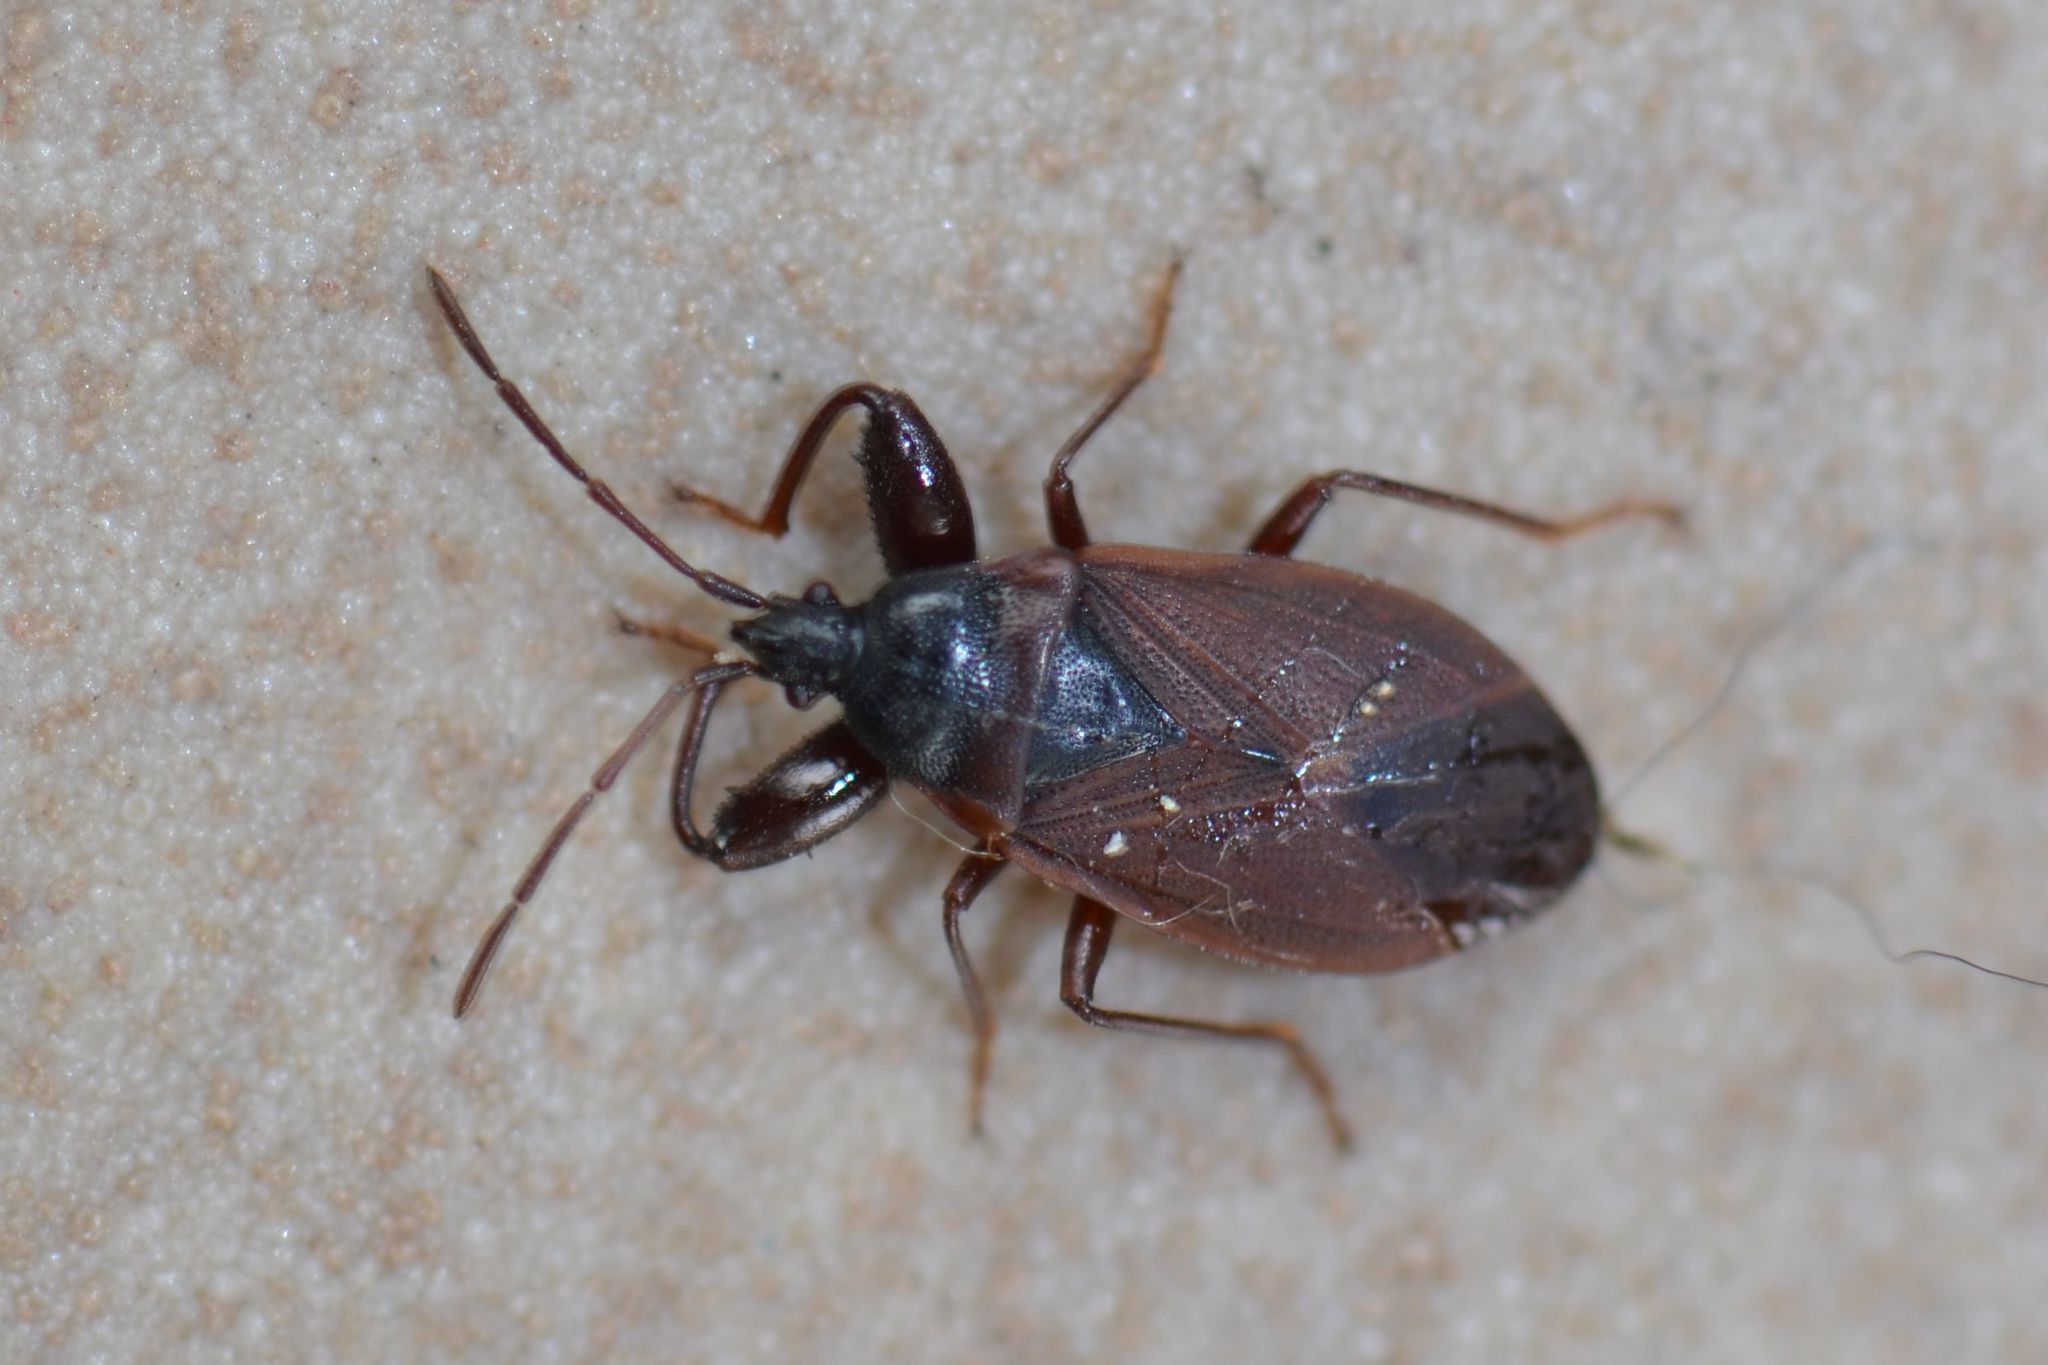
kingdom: Animalia
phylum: Arthropoda
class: Insecta
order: Hemiptera
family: Rhyparochromidae
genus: Gastrodes
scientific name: Gastrodes grossipes
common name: Pine cone bug
